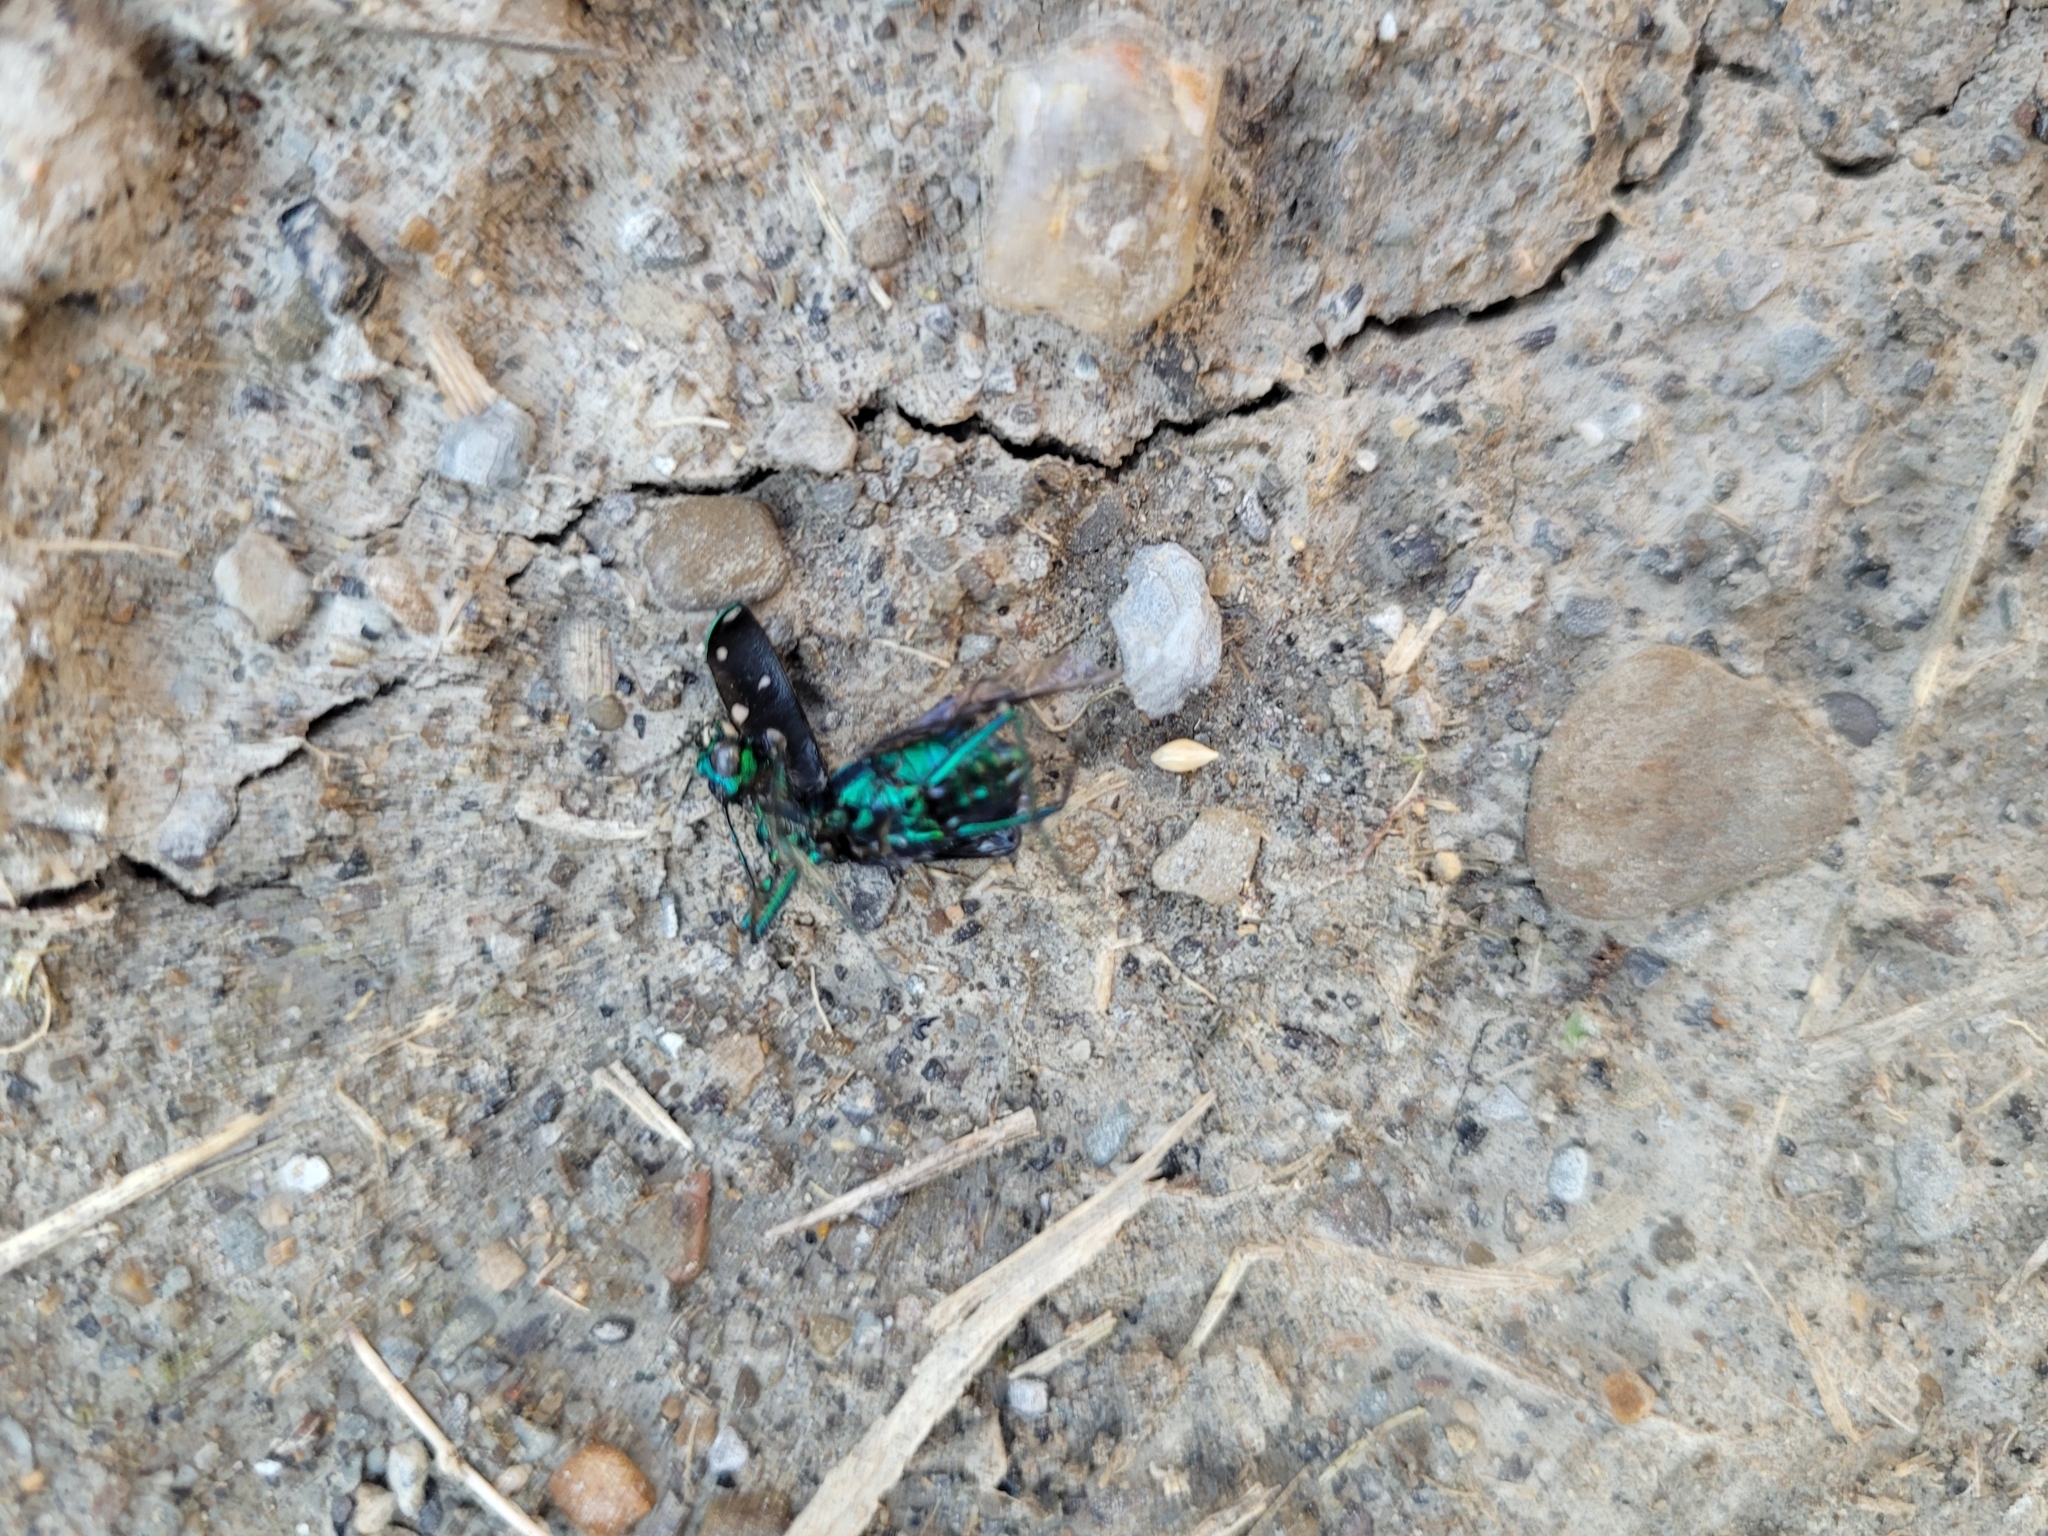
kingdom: Animalia
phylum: Arthropoda
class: Insecta
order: Coleoptera
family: Carabidae
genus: Cicindela
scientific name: Cicindela sexguttata
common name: Six-spotted tiger beetle
